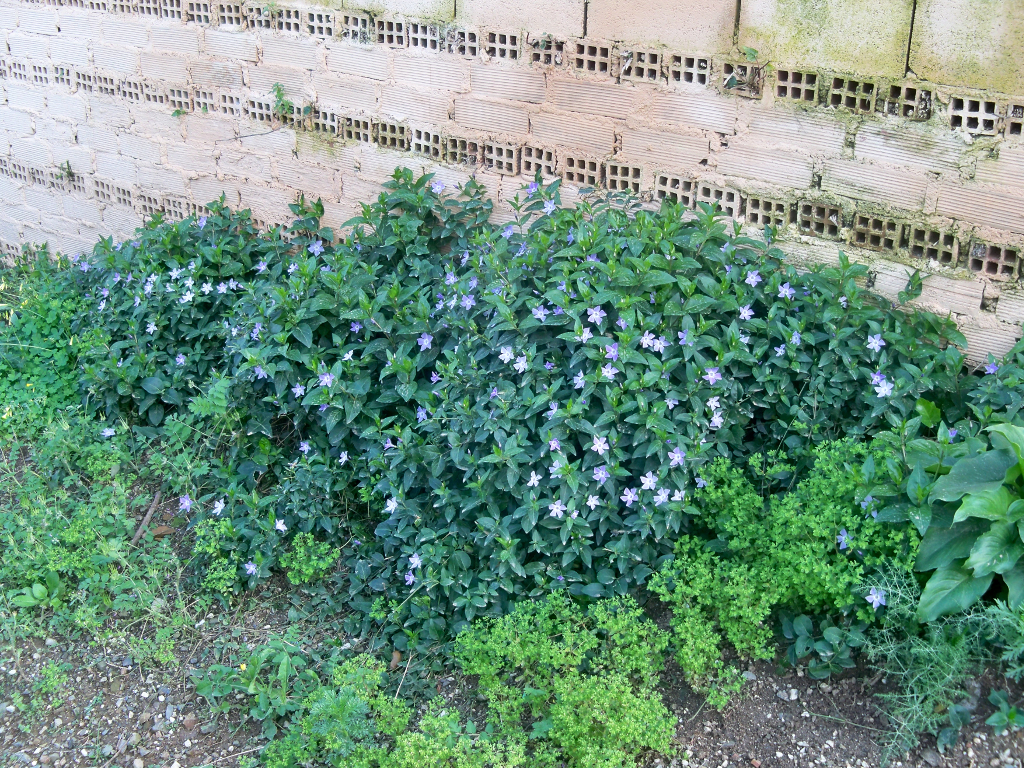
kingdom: Plantae
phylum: Tracheophyta
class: Magnoliopsida
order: Gentianales
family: Apocynaceae
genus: Vinca
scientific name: Vinca difformis
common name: Intermediate periwinkle
